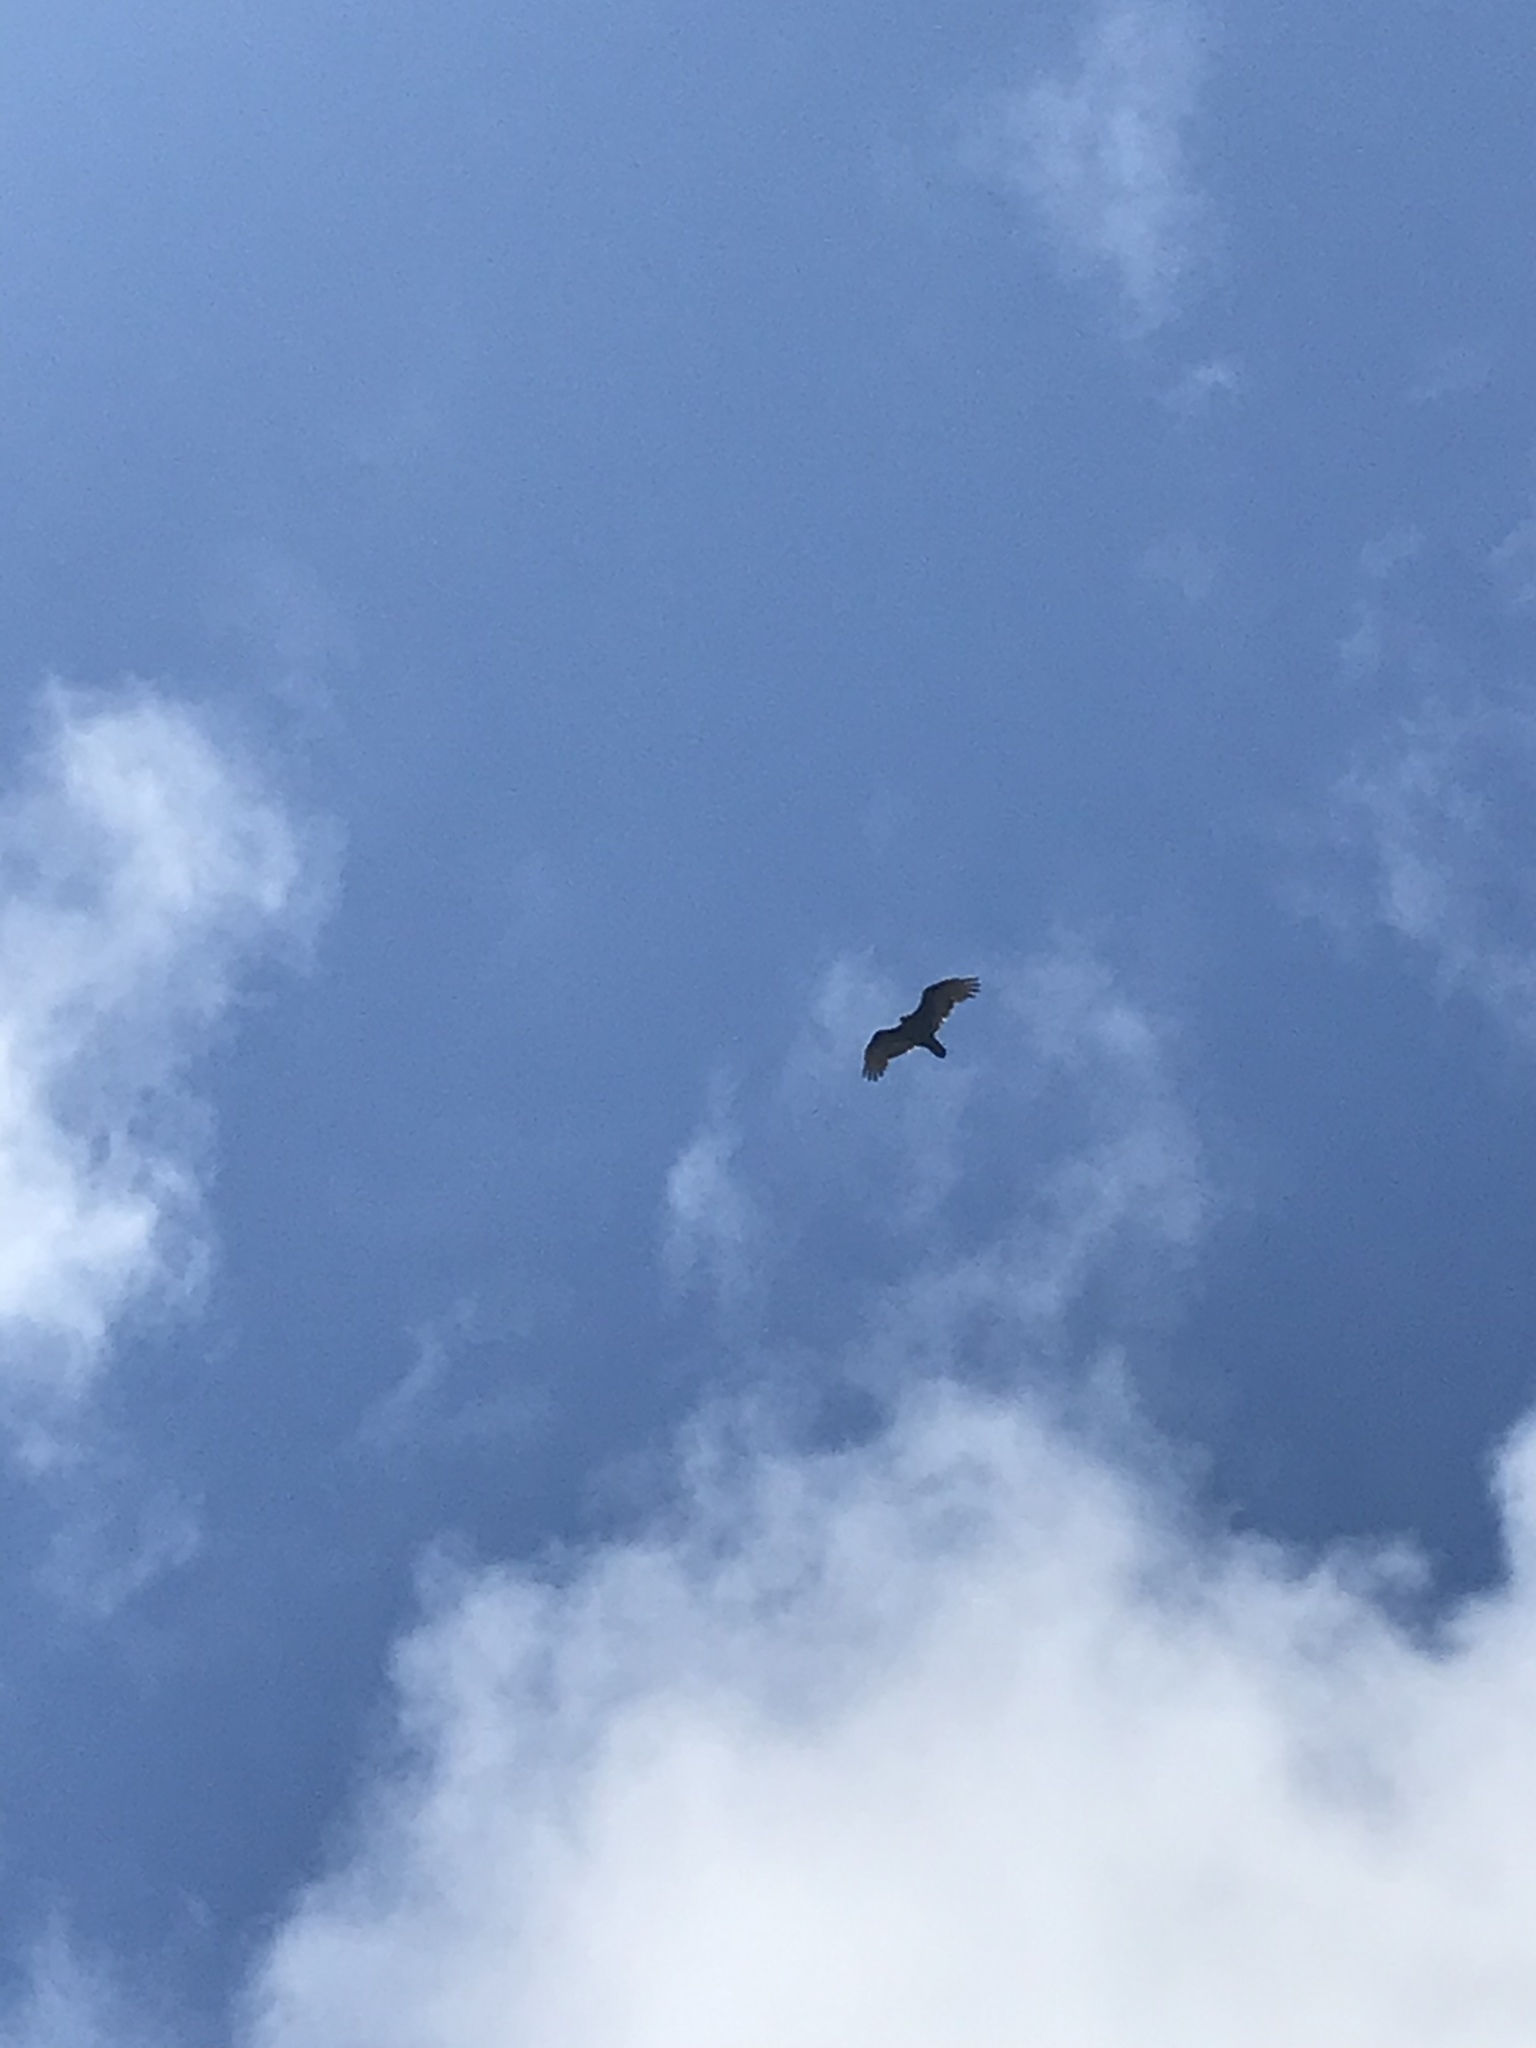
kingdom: Animalia
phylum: Chordata
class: Aves
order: Accipitriformes
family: Cathartidae
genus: Cathartes
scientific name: Cathartes aura
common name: Turkey vulture
